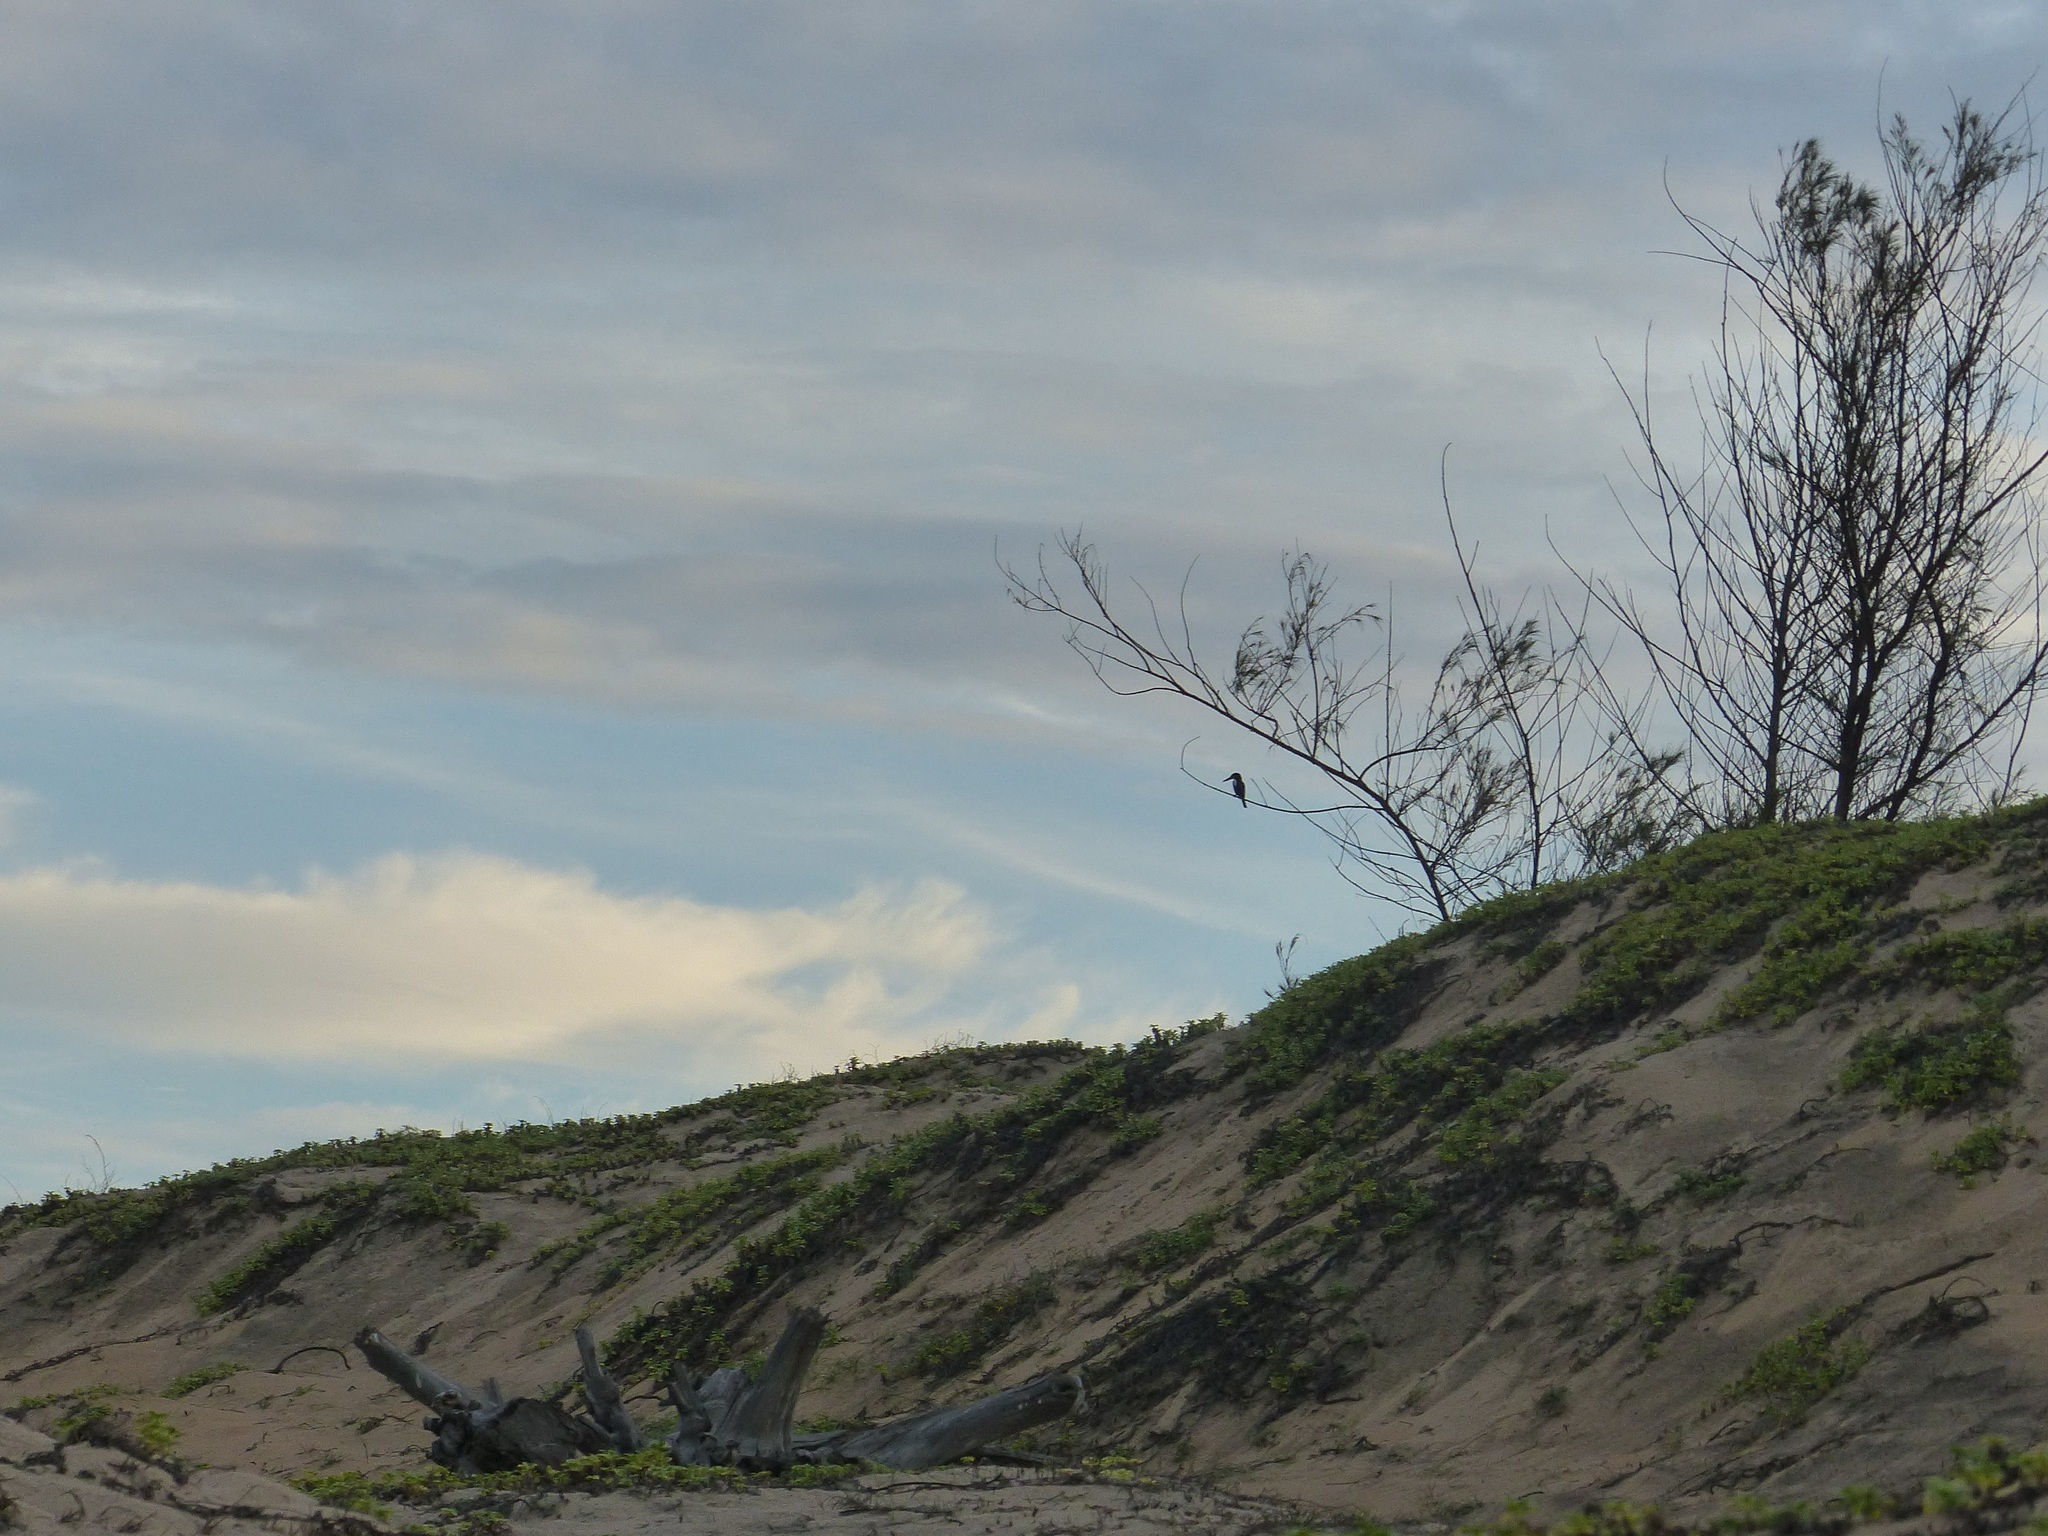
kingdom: Animalia
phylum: Chordata
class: Aves
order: Coraciiformes
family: Alcedinidae
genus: Halcyon
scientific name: Halcyon smyrnensis
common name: White-throated kingfisher
